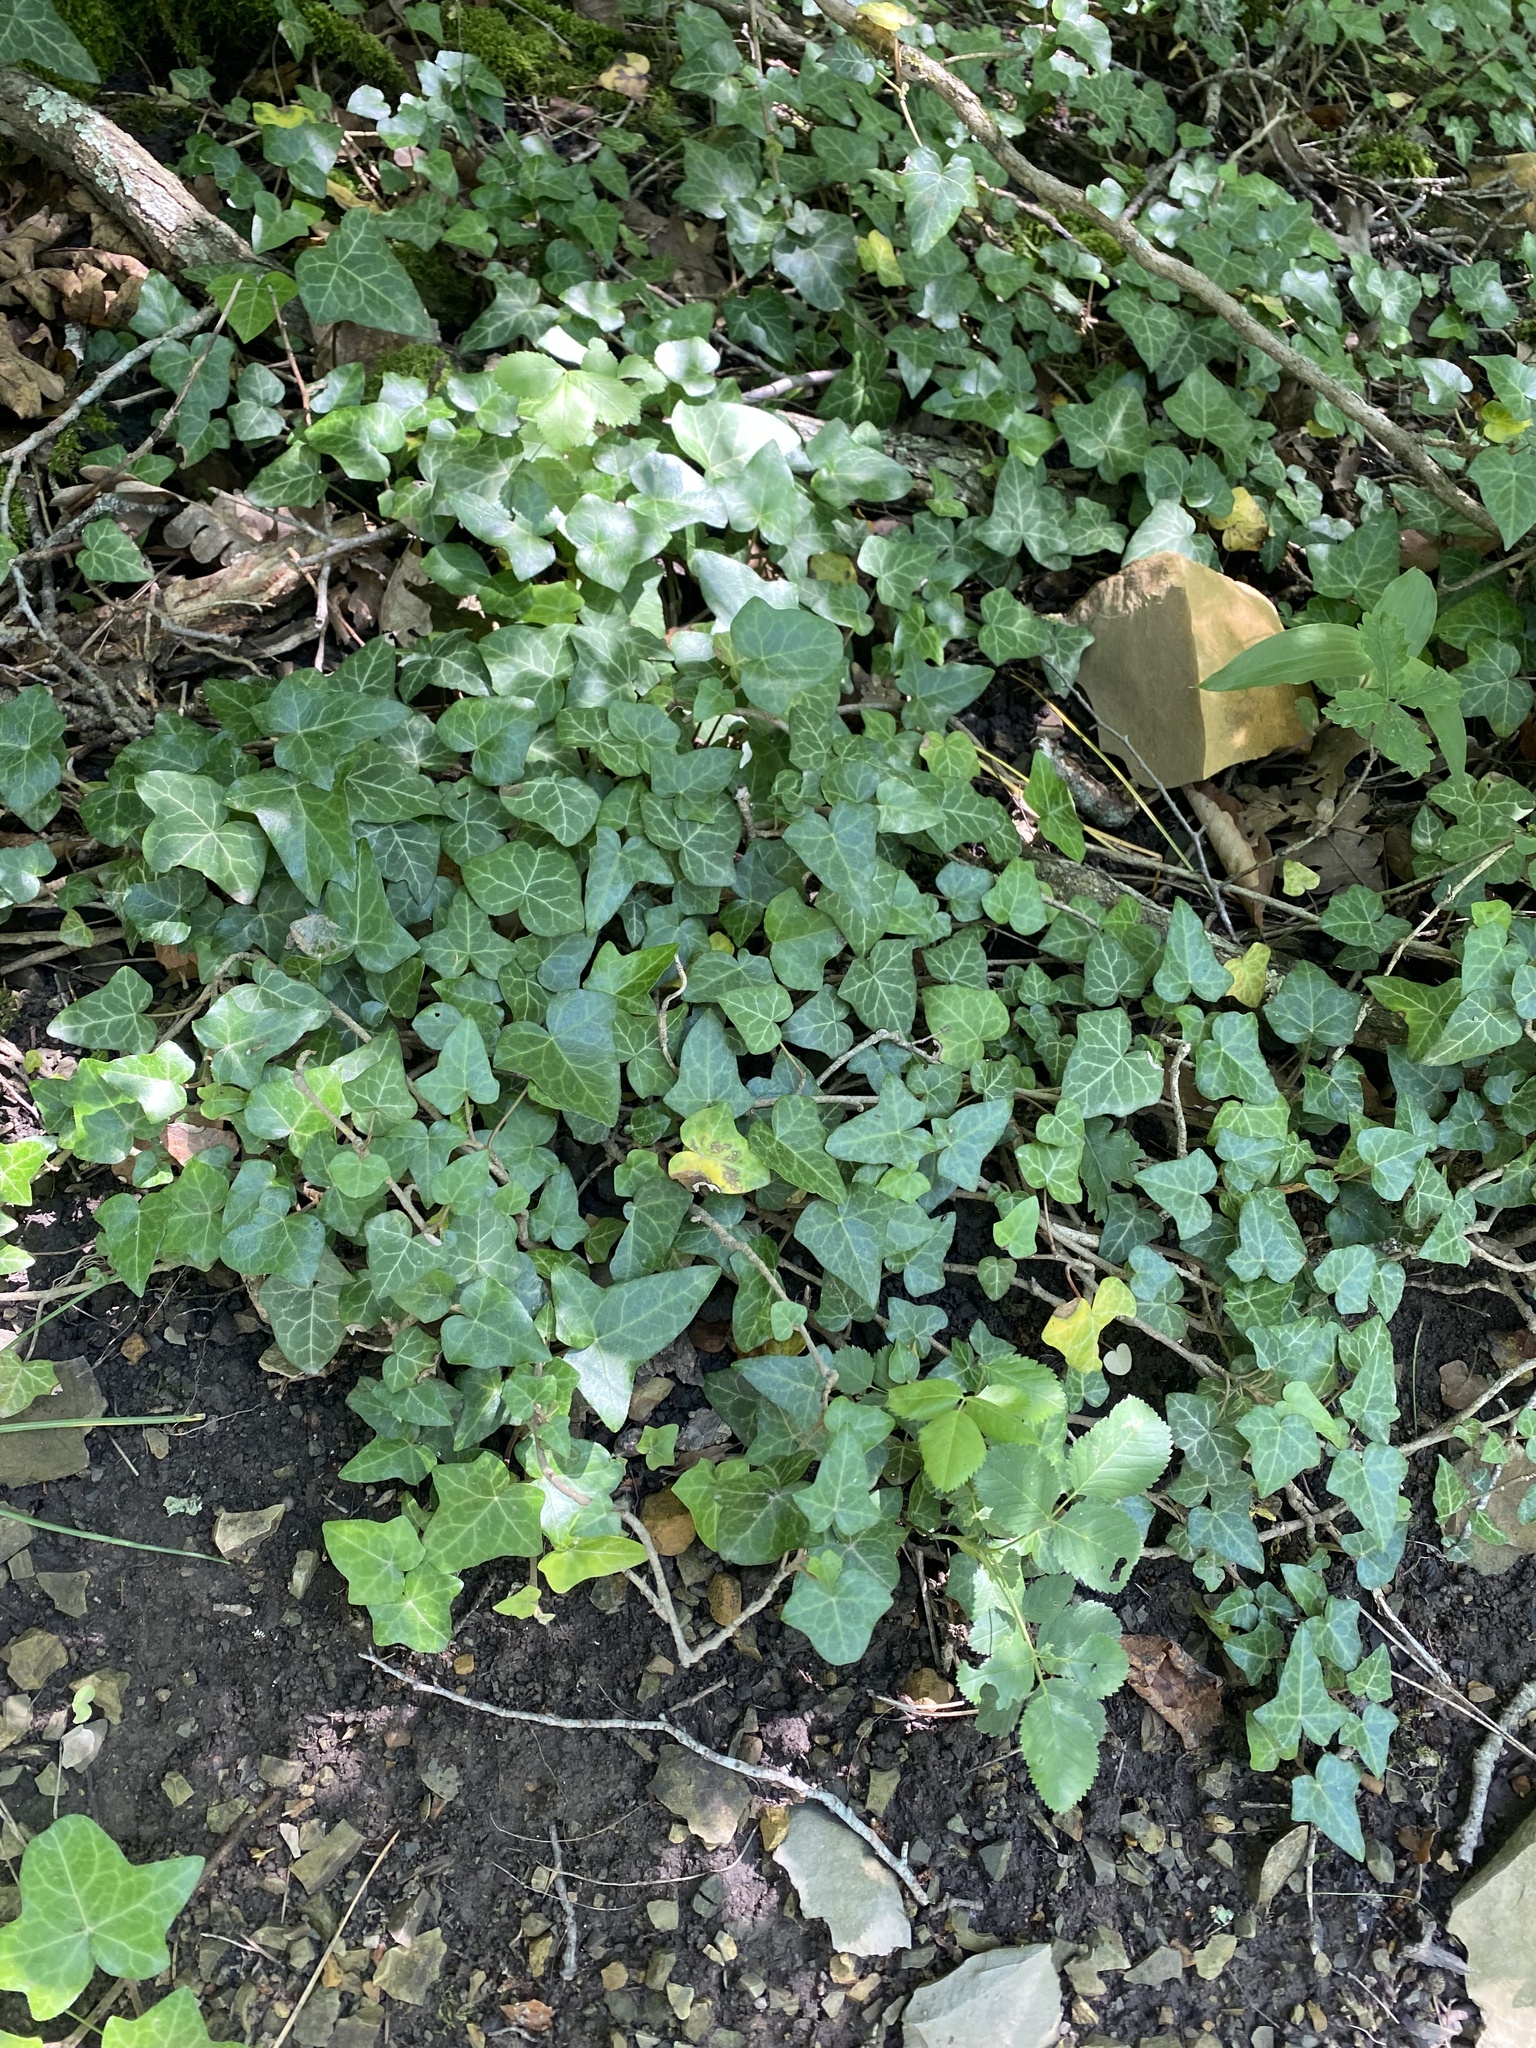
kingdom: Plantae
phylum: Tracheophyta
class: Magnoliopsida
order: Apiales
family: Araliaceae
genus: Hedera
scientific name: Hedera helix
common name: Ivy
